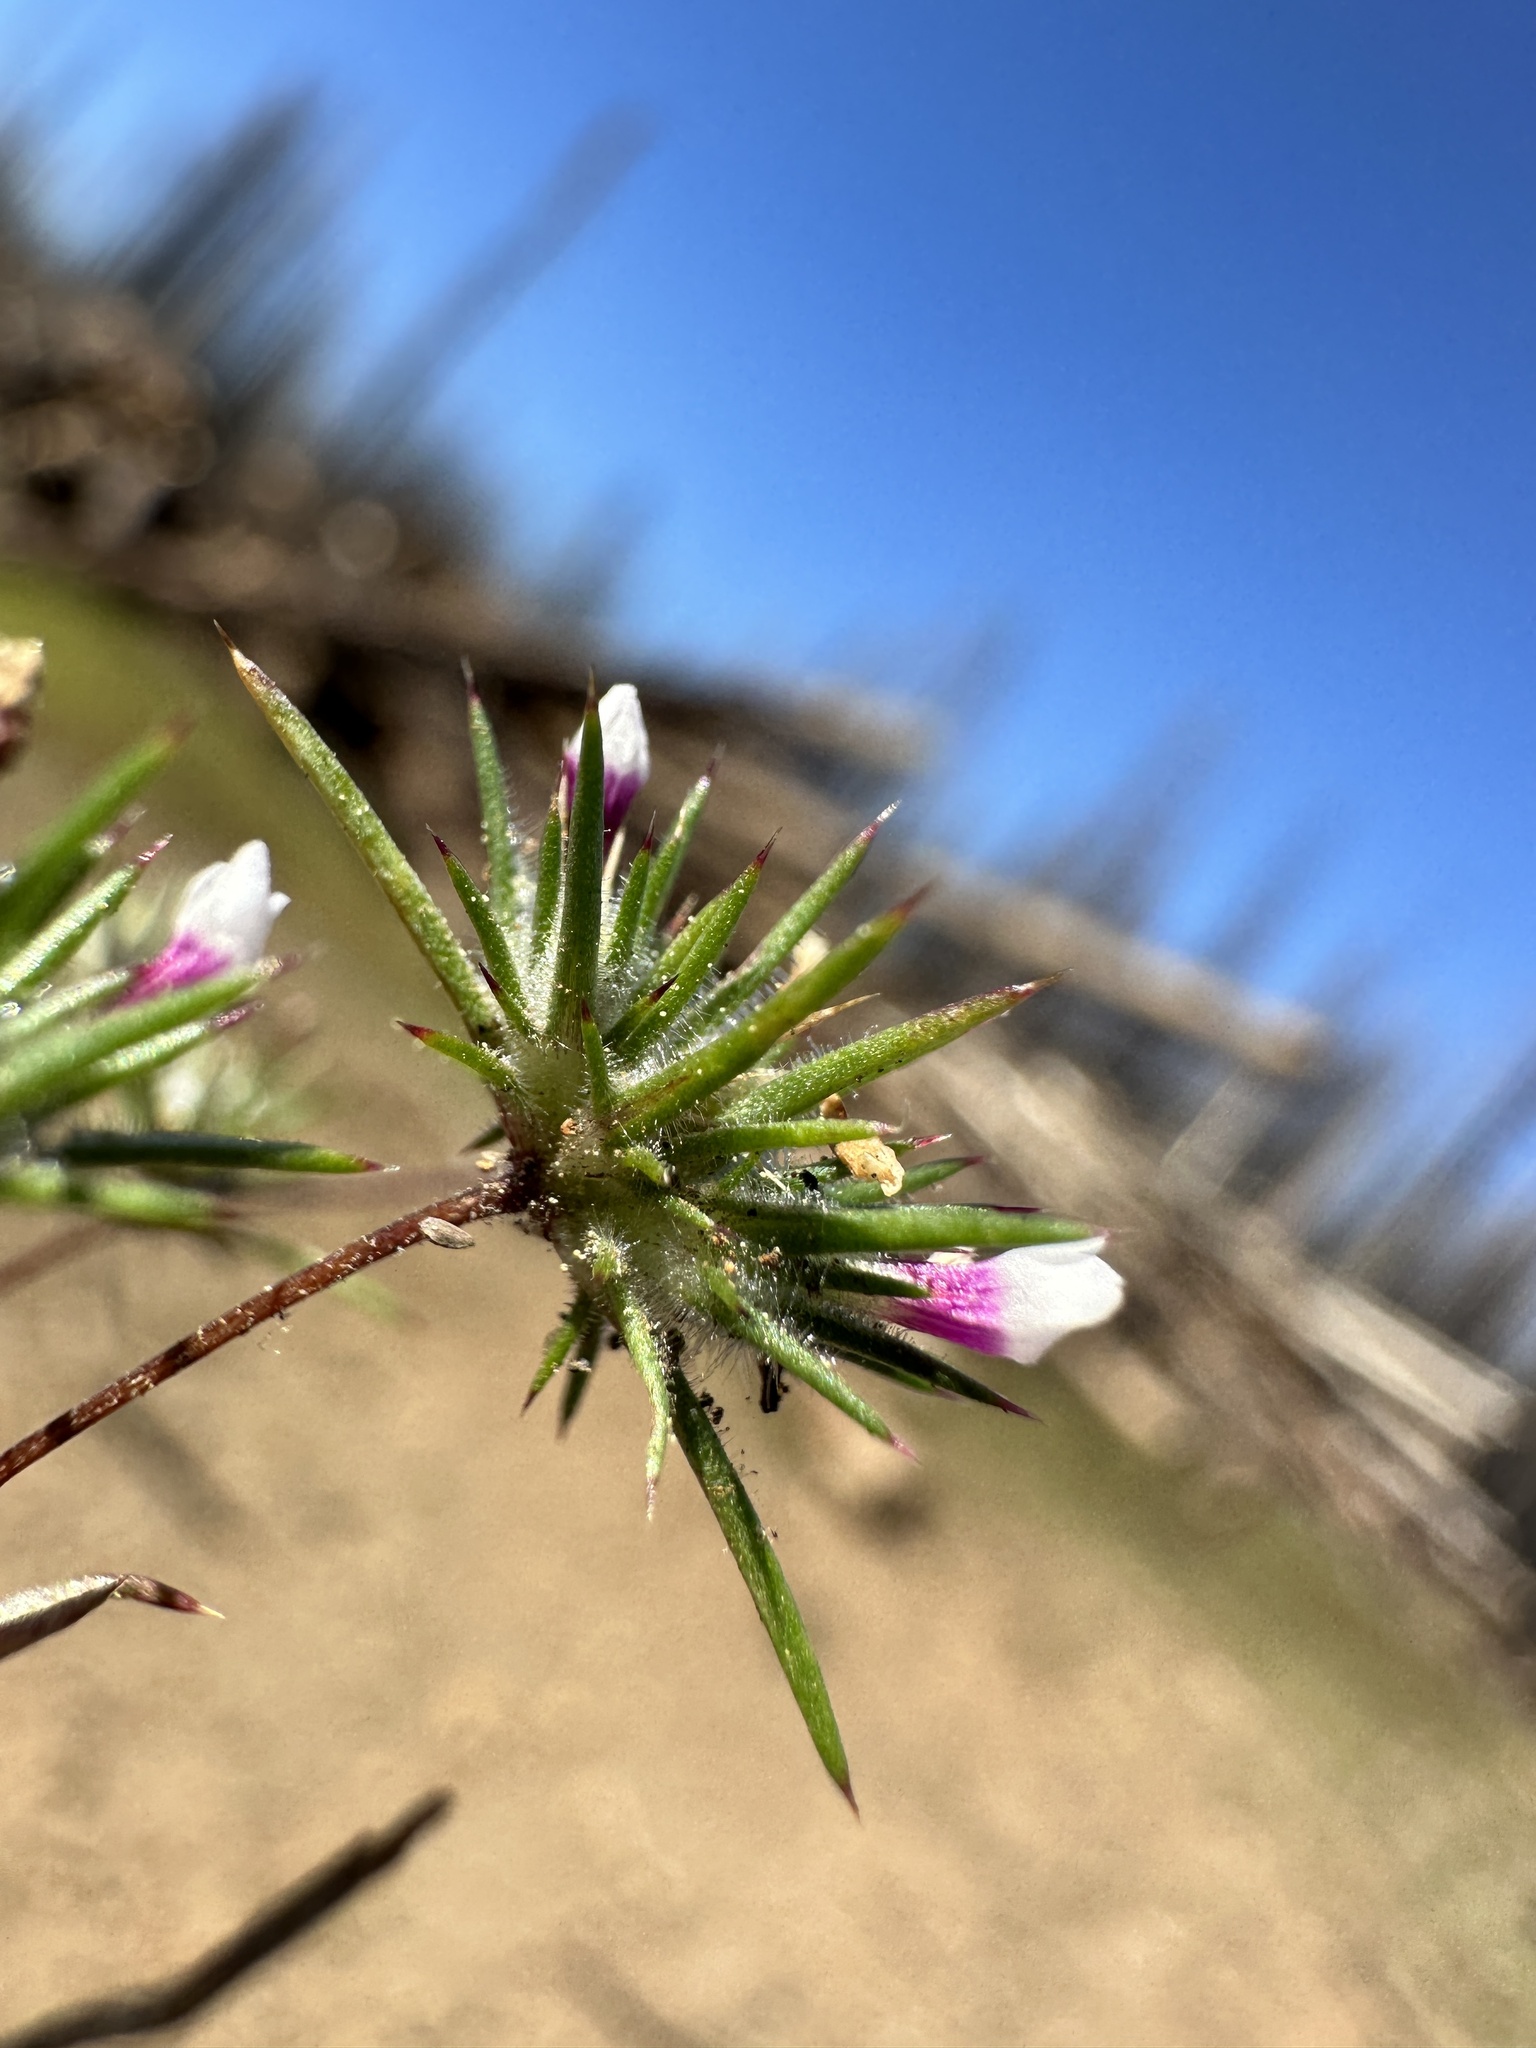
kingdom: Plantae
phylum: Tracheophyta
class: Magnoliopsida
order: Ericales
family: Polemoniaceae
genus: Navarretia
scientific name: Navarretia torreyella
